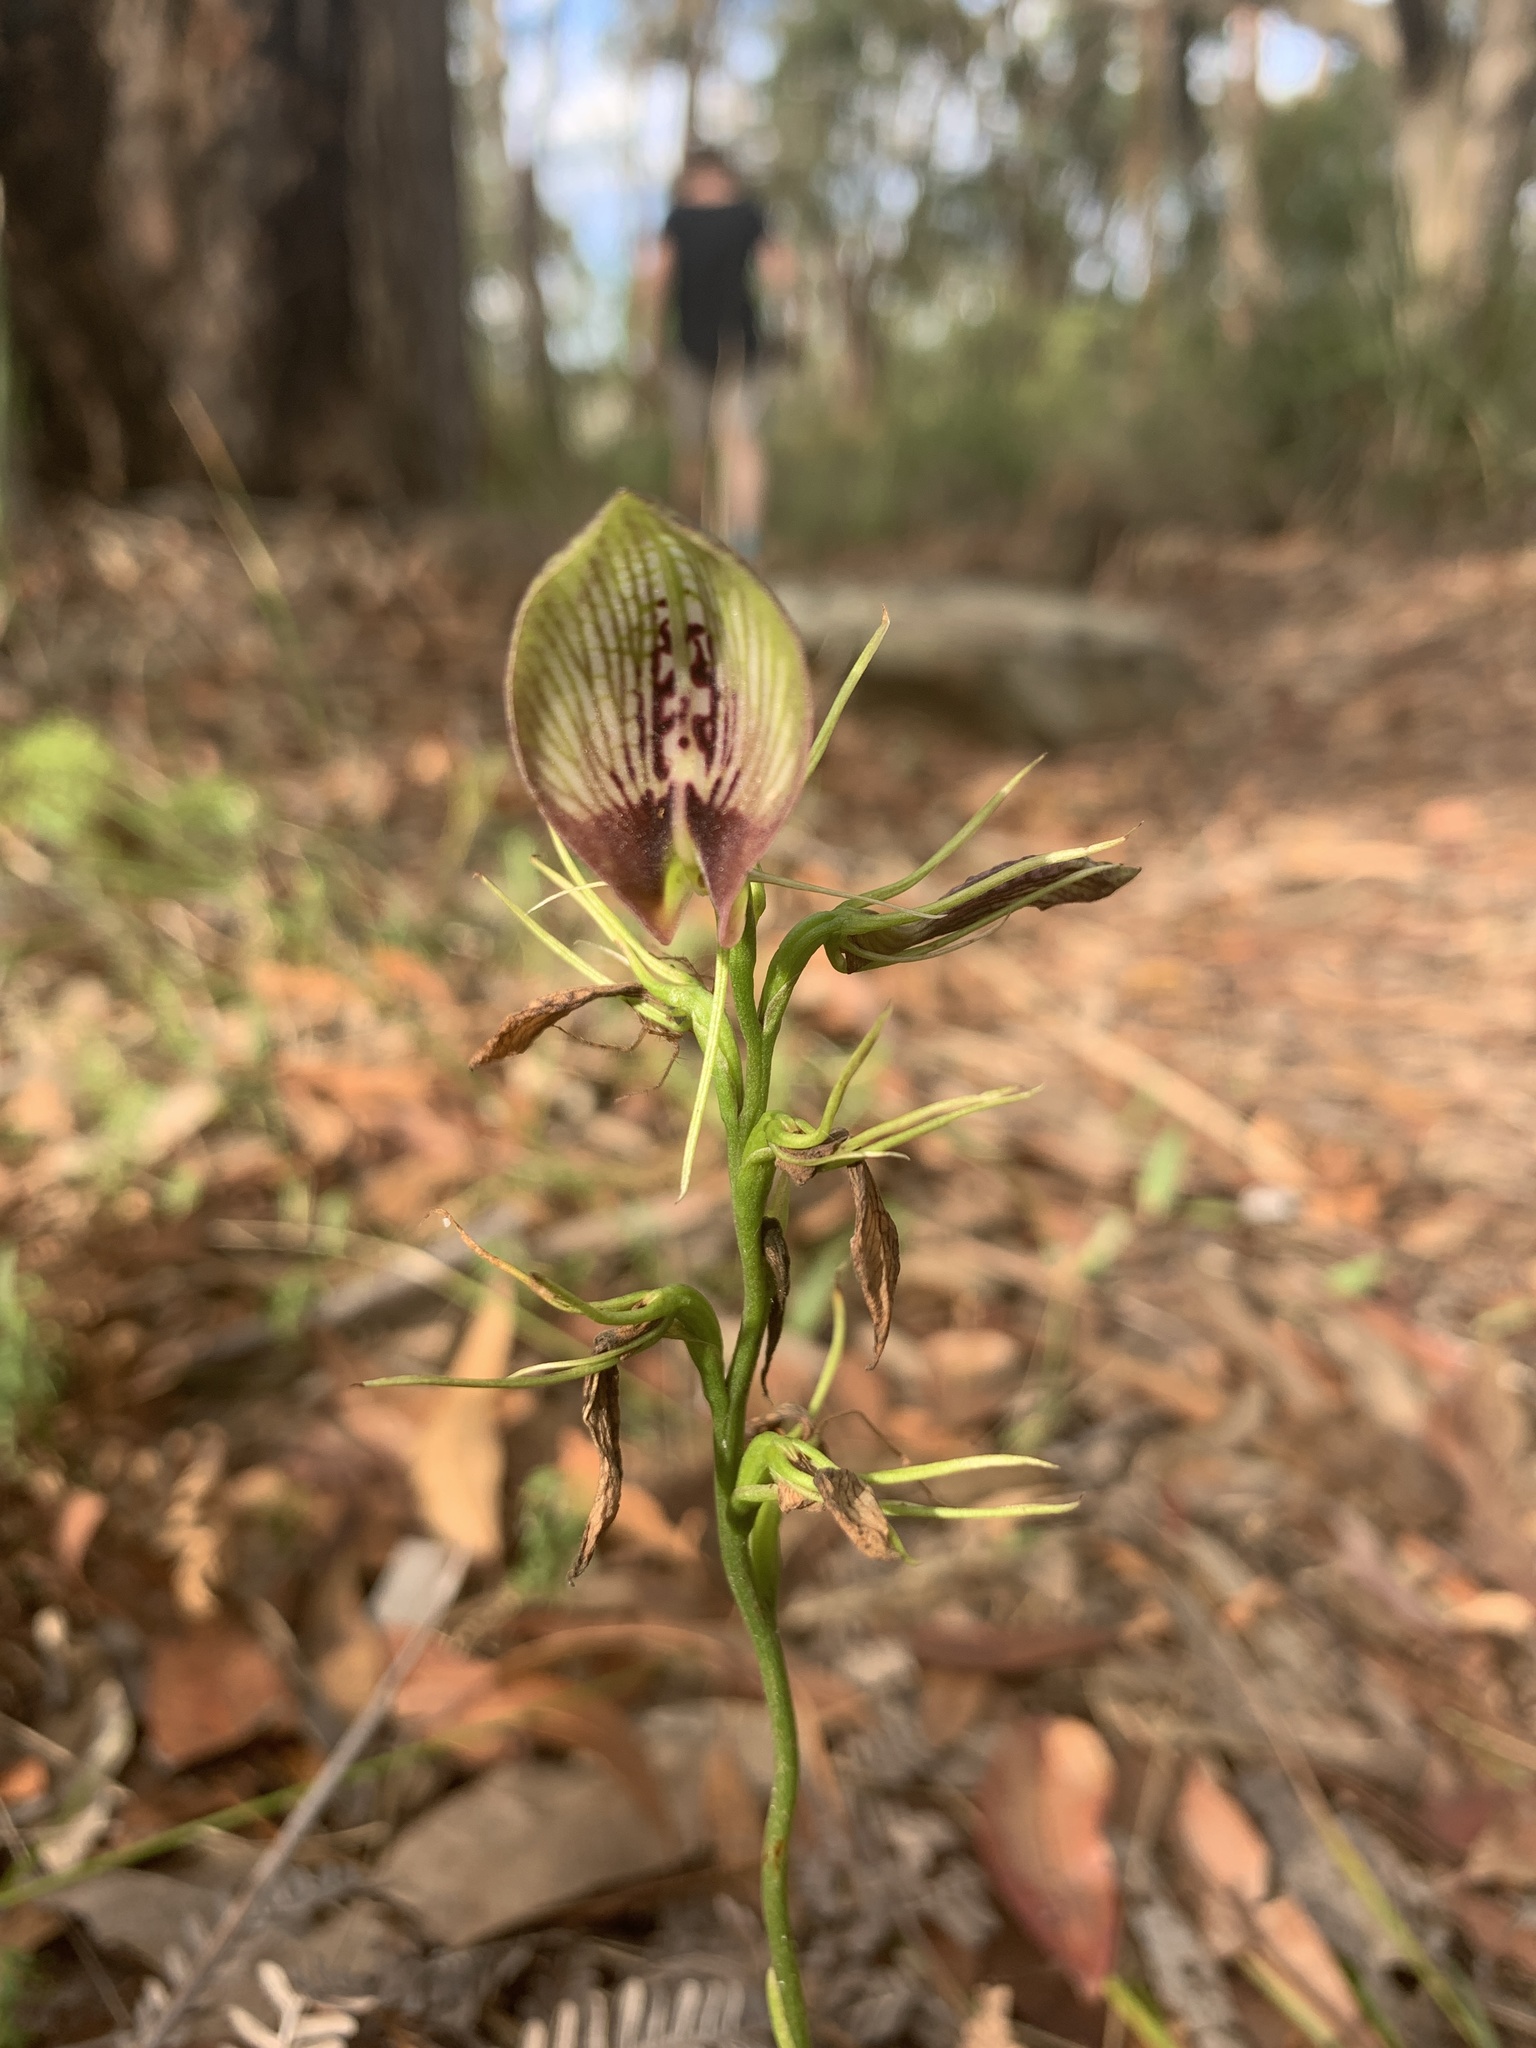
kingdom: Plantae
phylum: Tracheophyta
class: Liliopsida
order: Asparagales
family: Orchidaceae
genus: Cryptostylis
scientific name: Cryptostylis erecta
